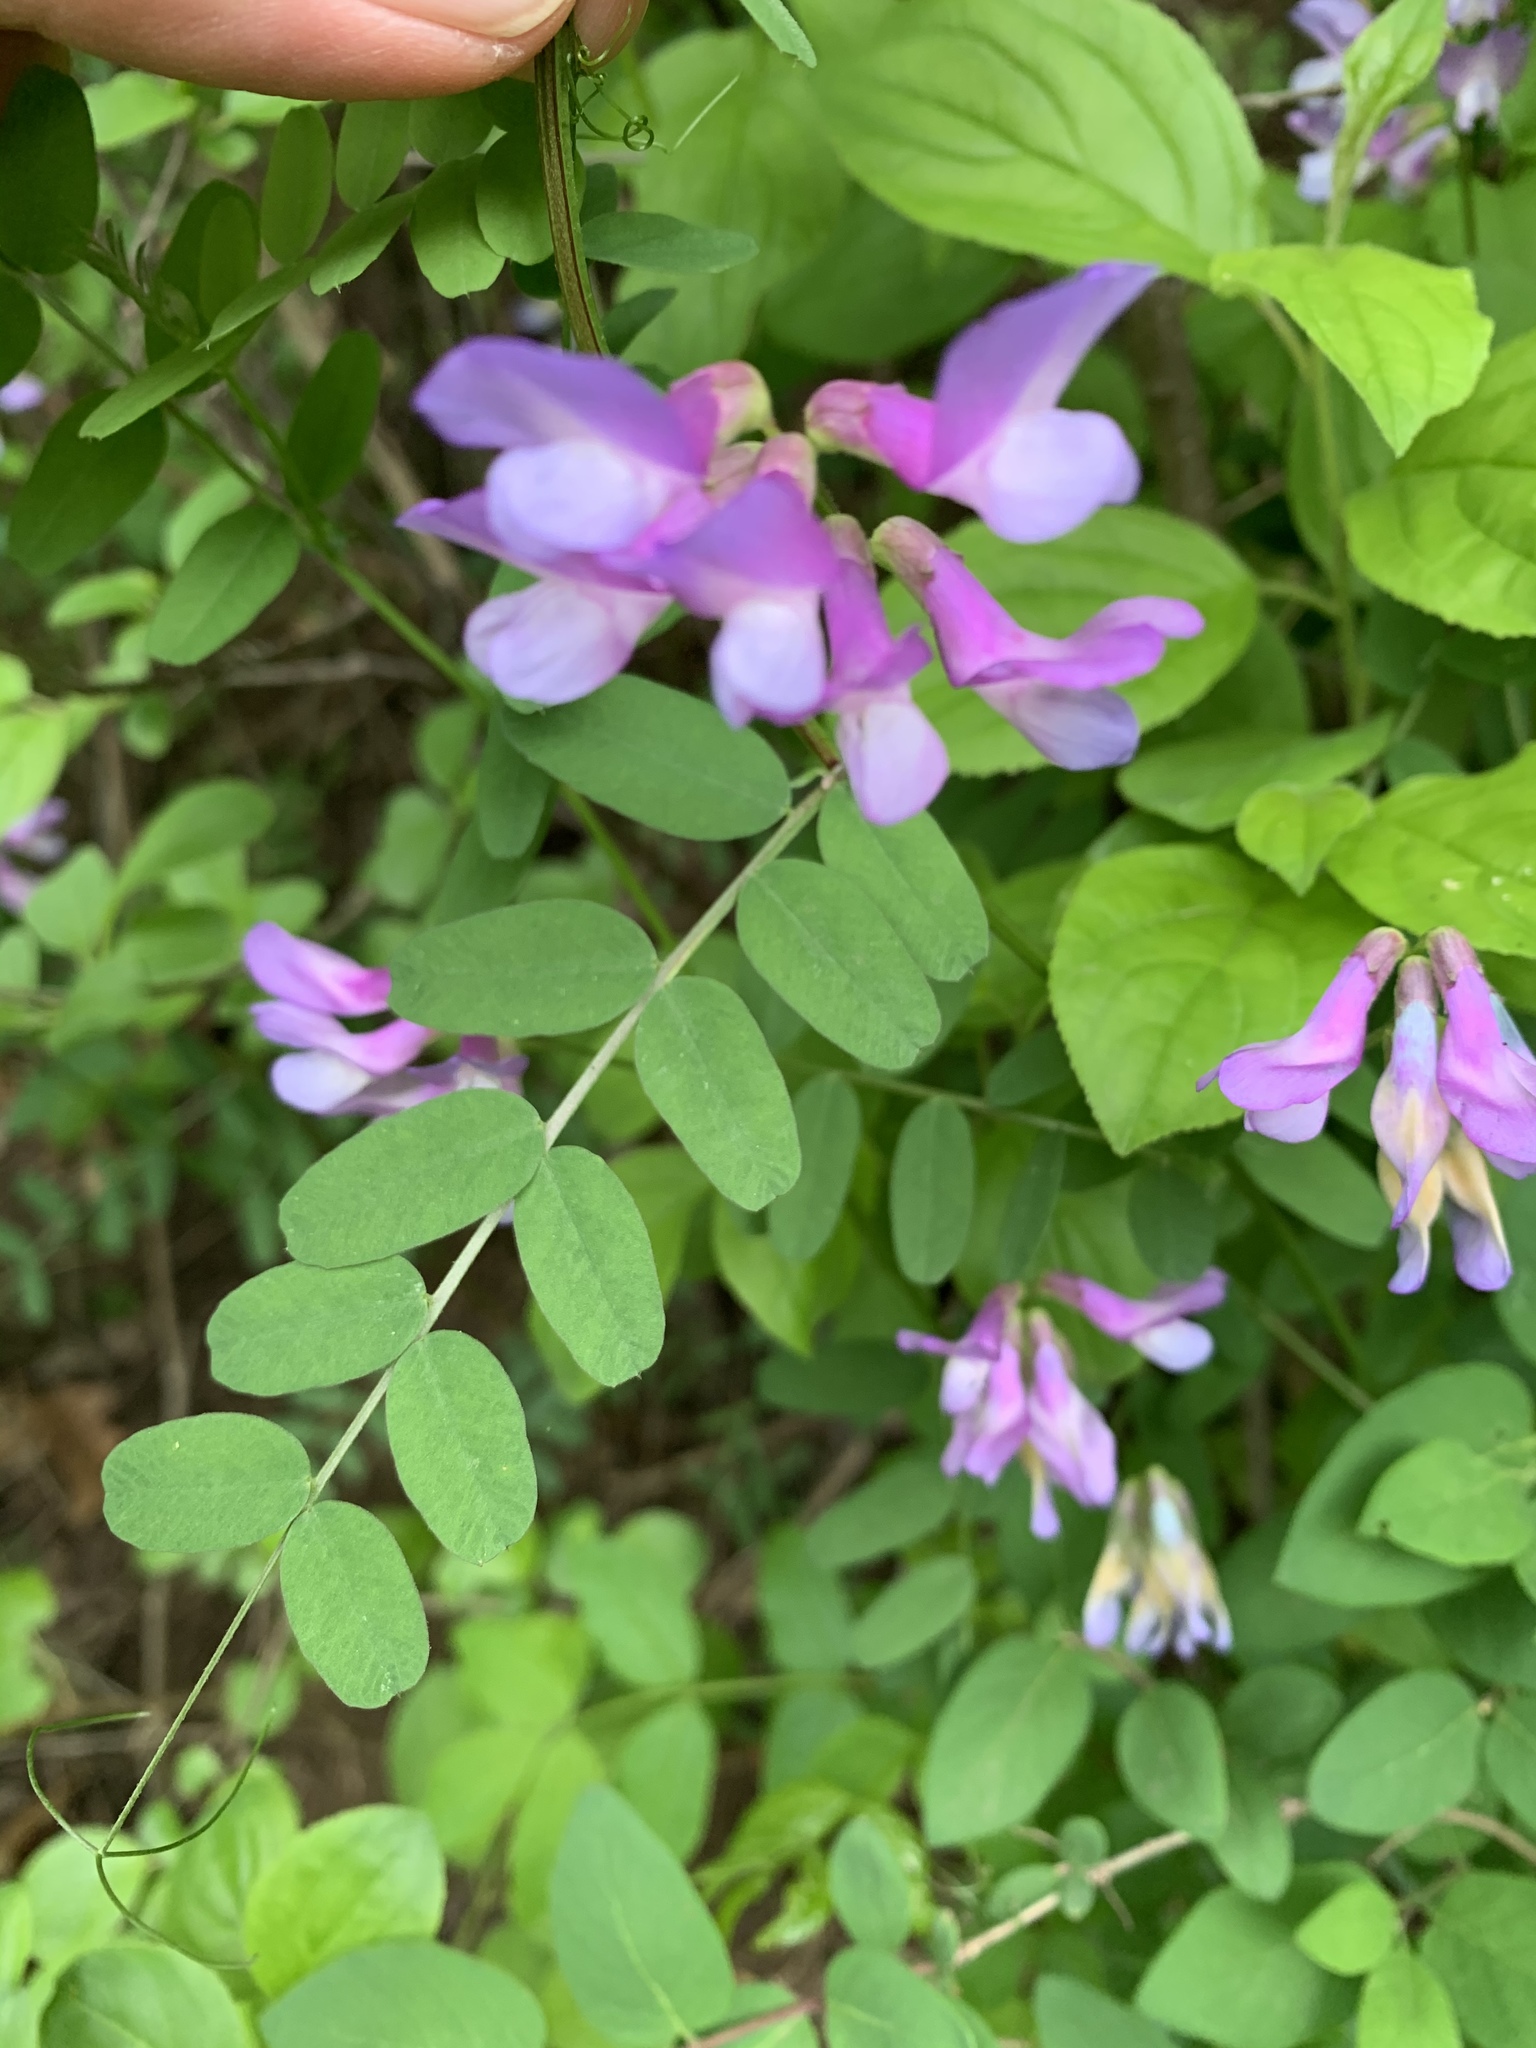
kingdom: Plantae
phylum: Tracheophyta
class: Magnoliopsida
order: Fabales
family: Fabaceae
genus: Vicia
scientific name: Vicia americana
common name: American vetch
